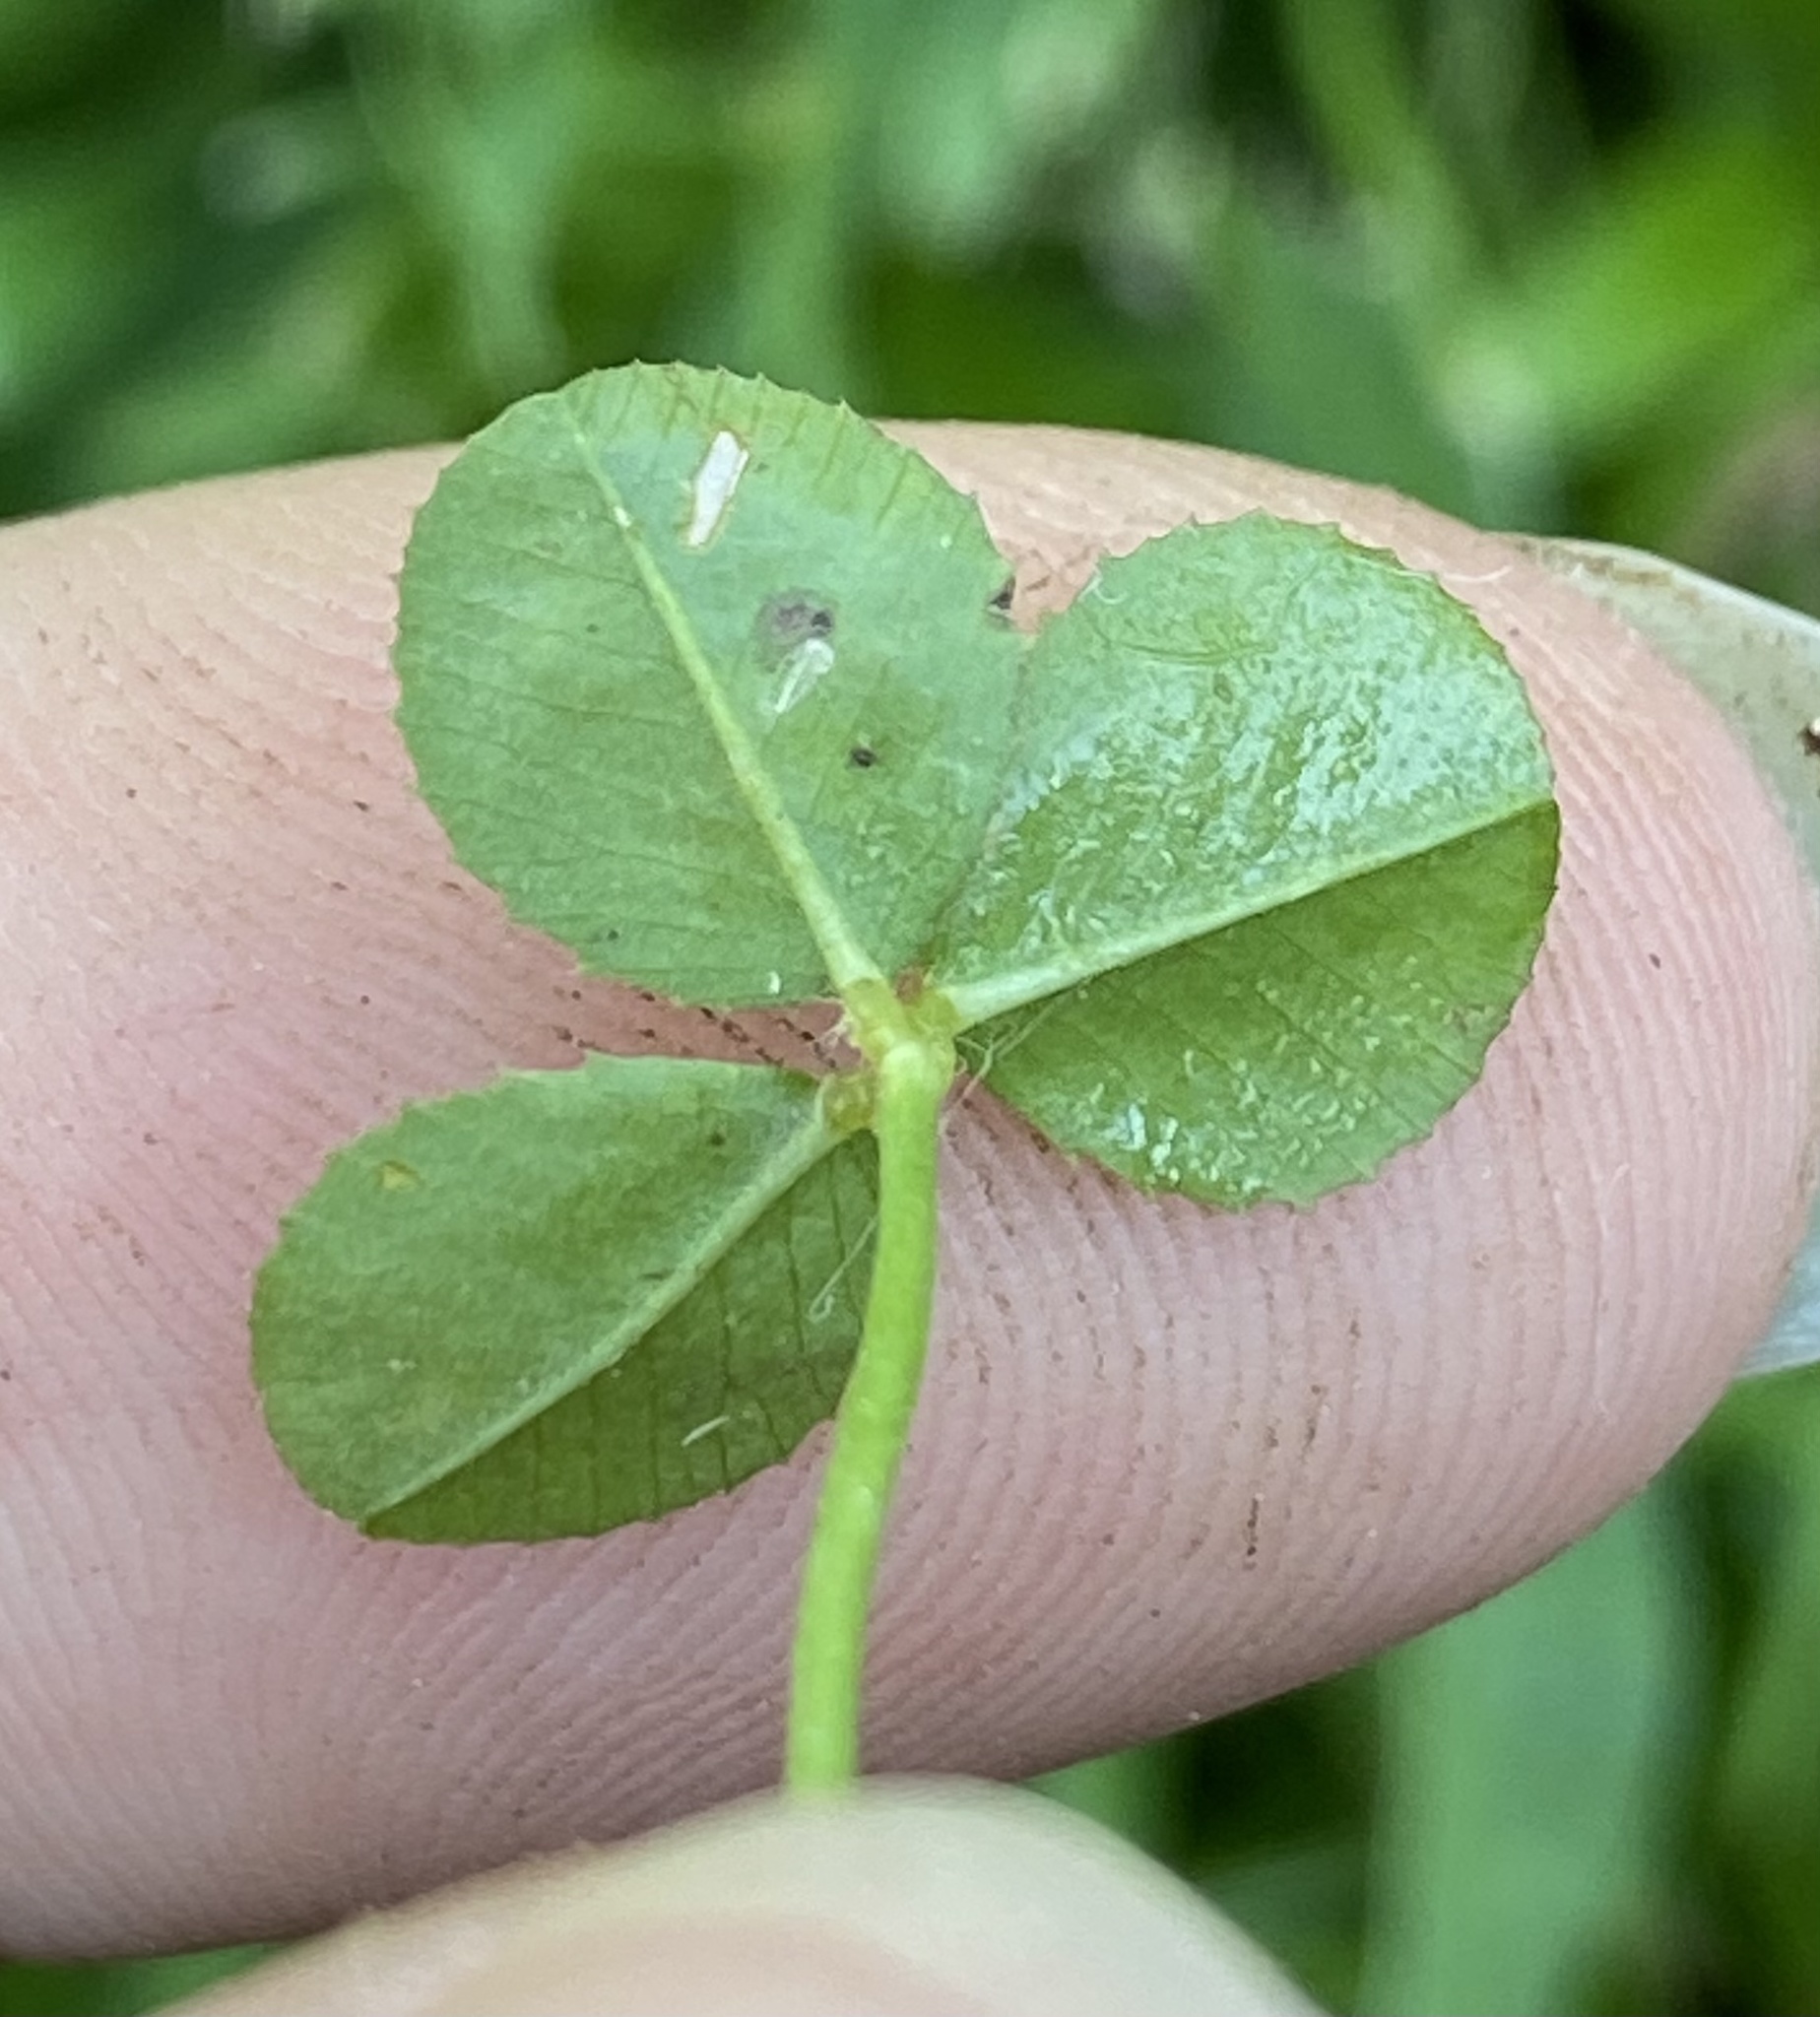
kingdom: Plantae
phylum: Tracheophyta
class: Magnoliopsida
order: Fabales
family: Fabaceae
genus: Trifolium
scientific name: Trifolium repens
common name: White clover
